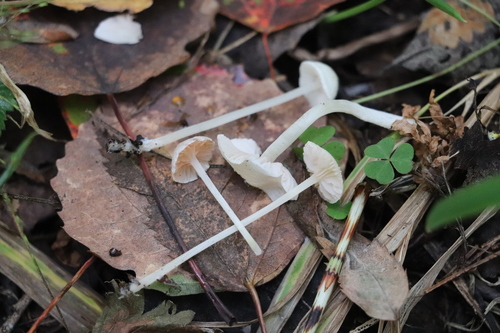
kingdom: Fungi
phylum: Basidiomycota
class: Agaricomycetes
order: Agaricales
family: Entolomataceae
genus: Entoloma
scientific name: Entoloma
